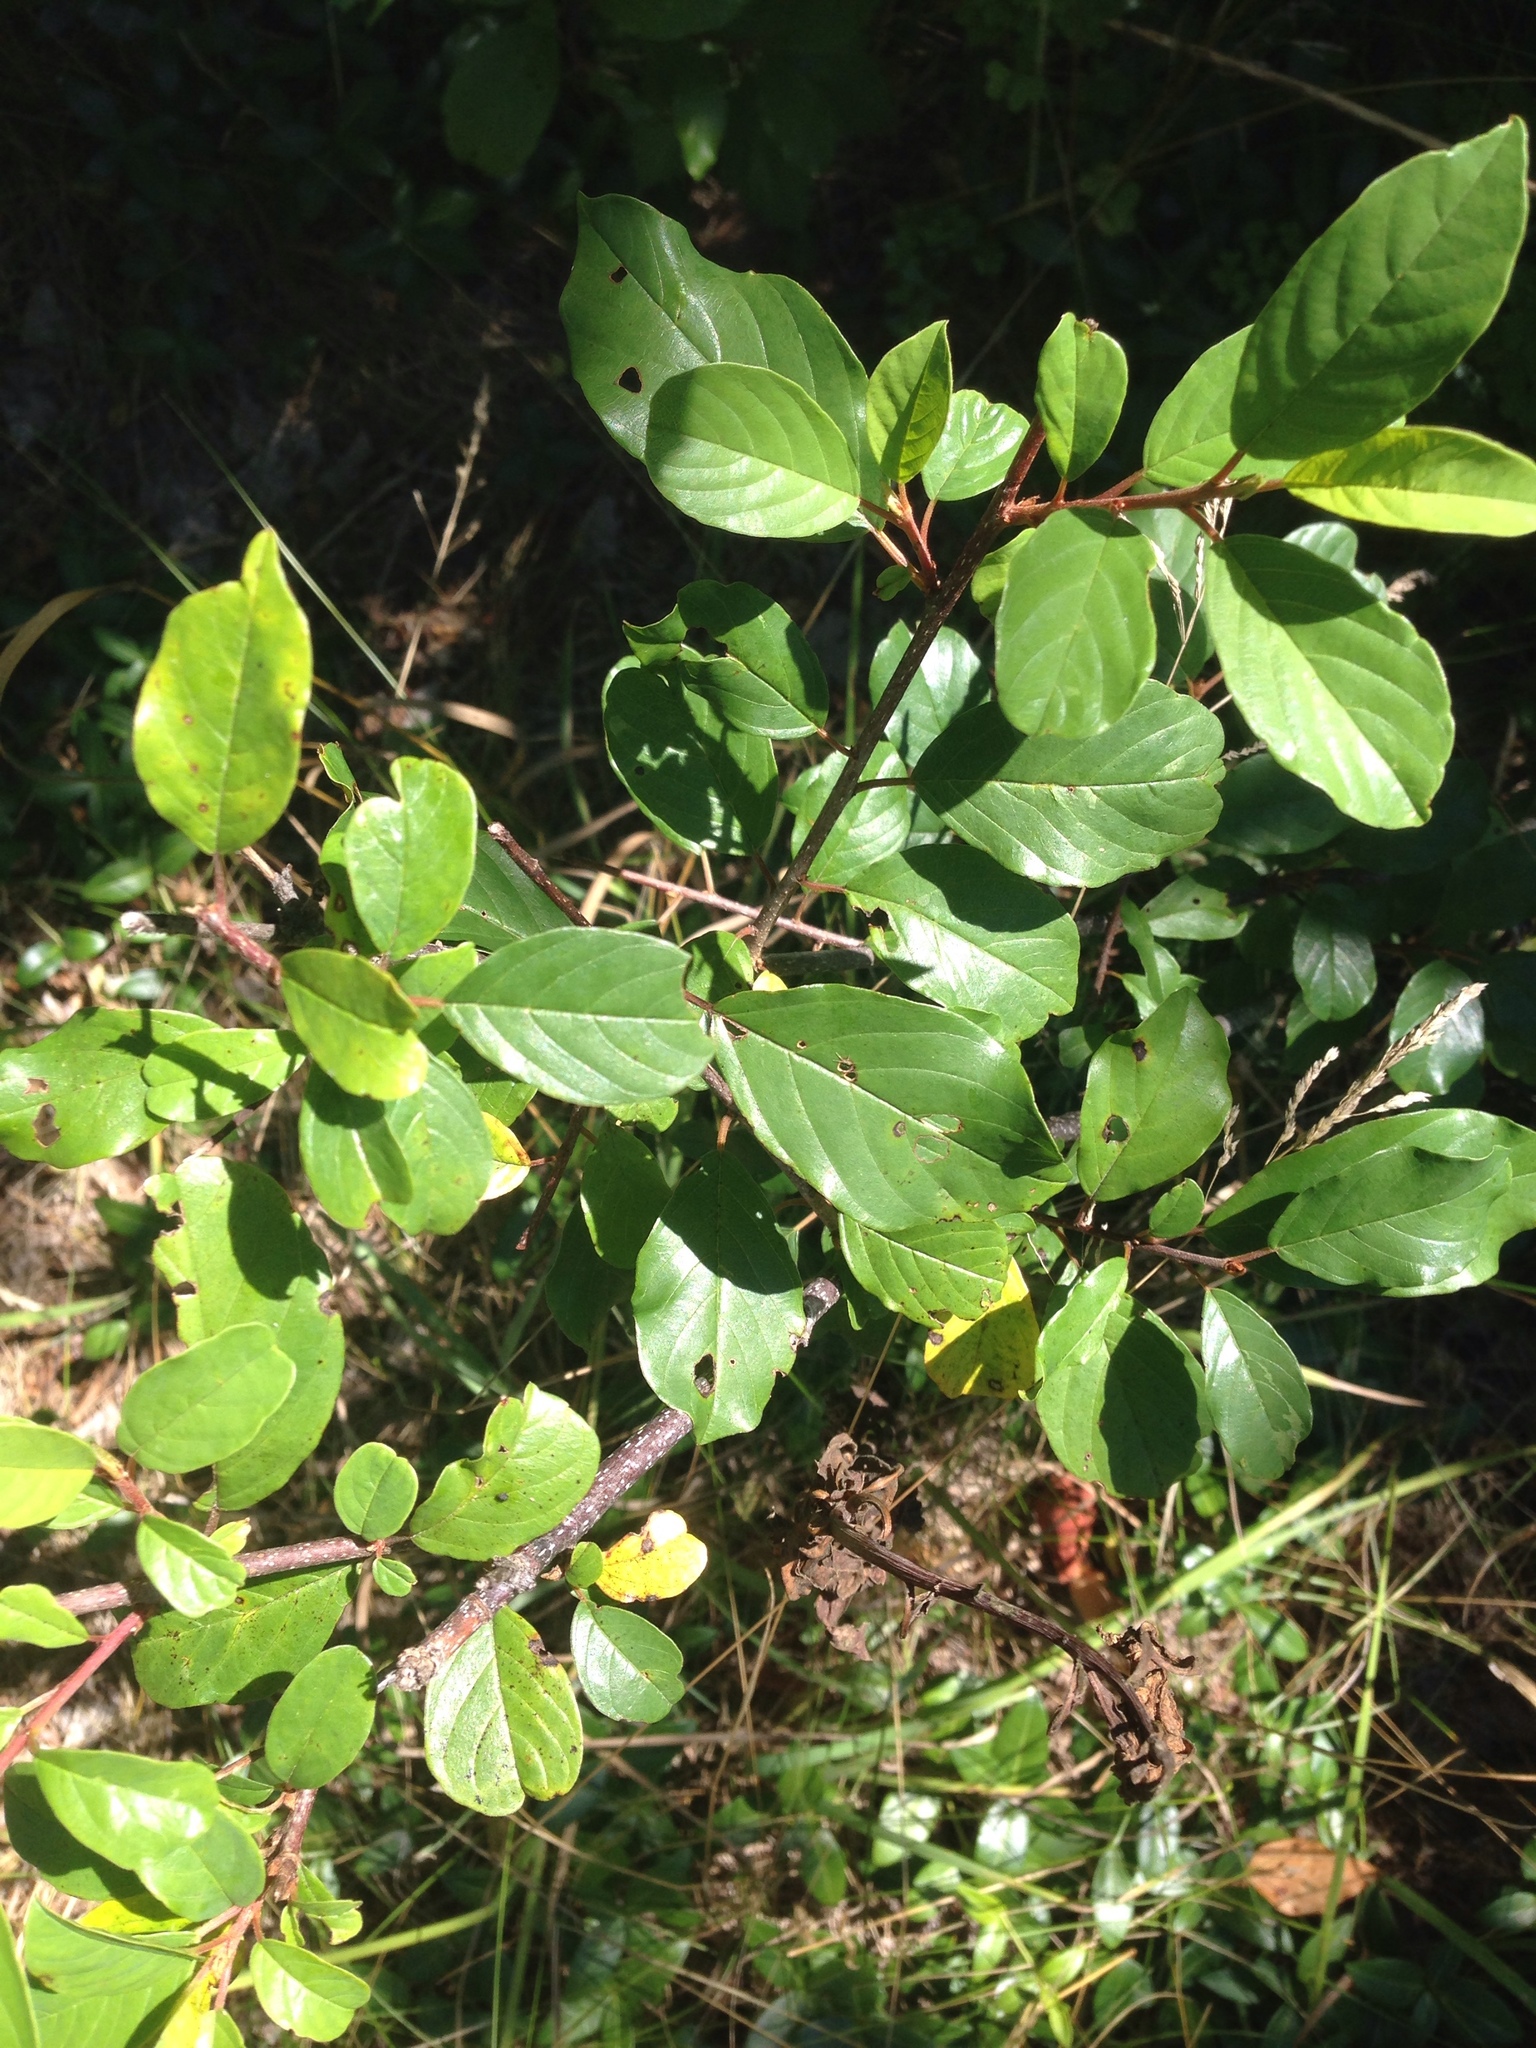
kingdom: Plantae
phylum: Tracheophyta
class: Magnoliopsida
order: Rosales
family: Rhamnaceae
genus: Frangula
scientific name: Frangula alnus
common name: Alder buckthorn
